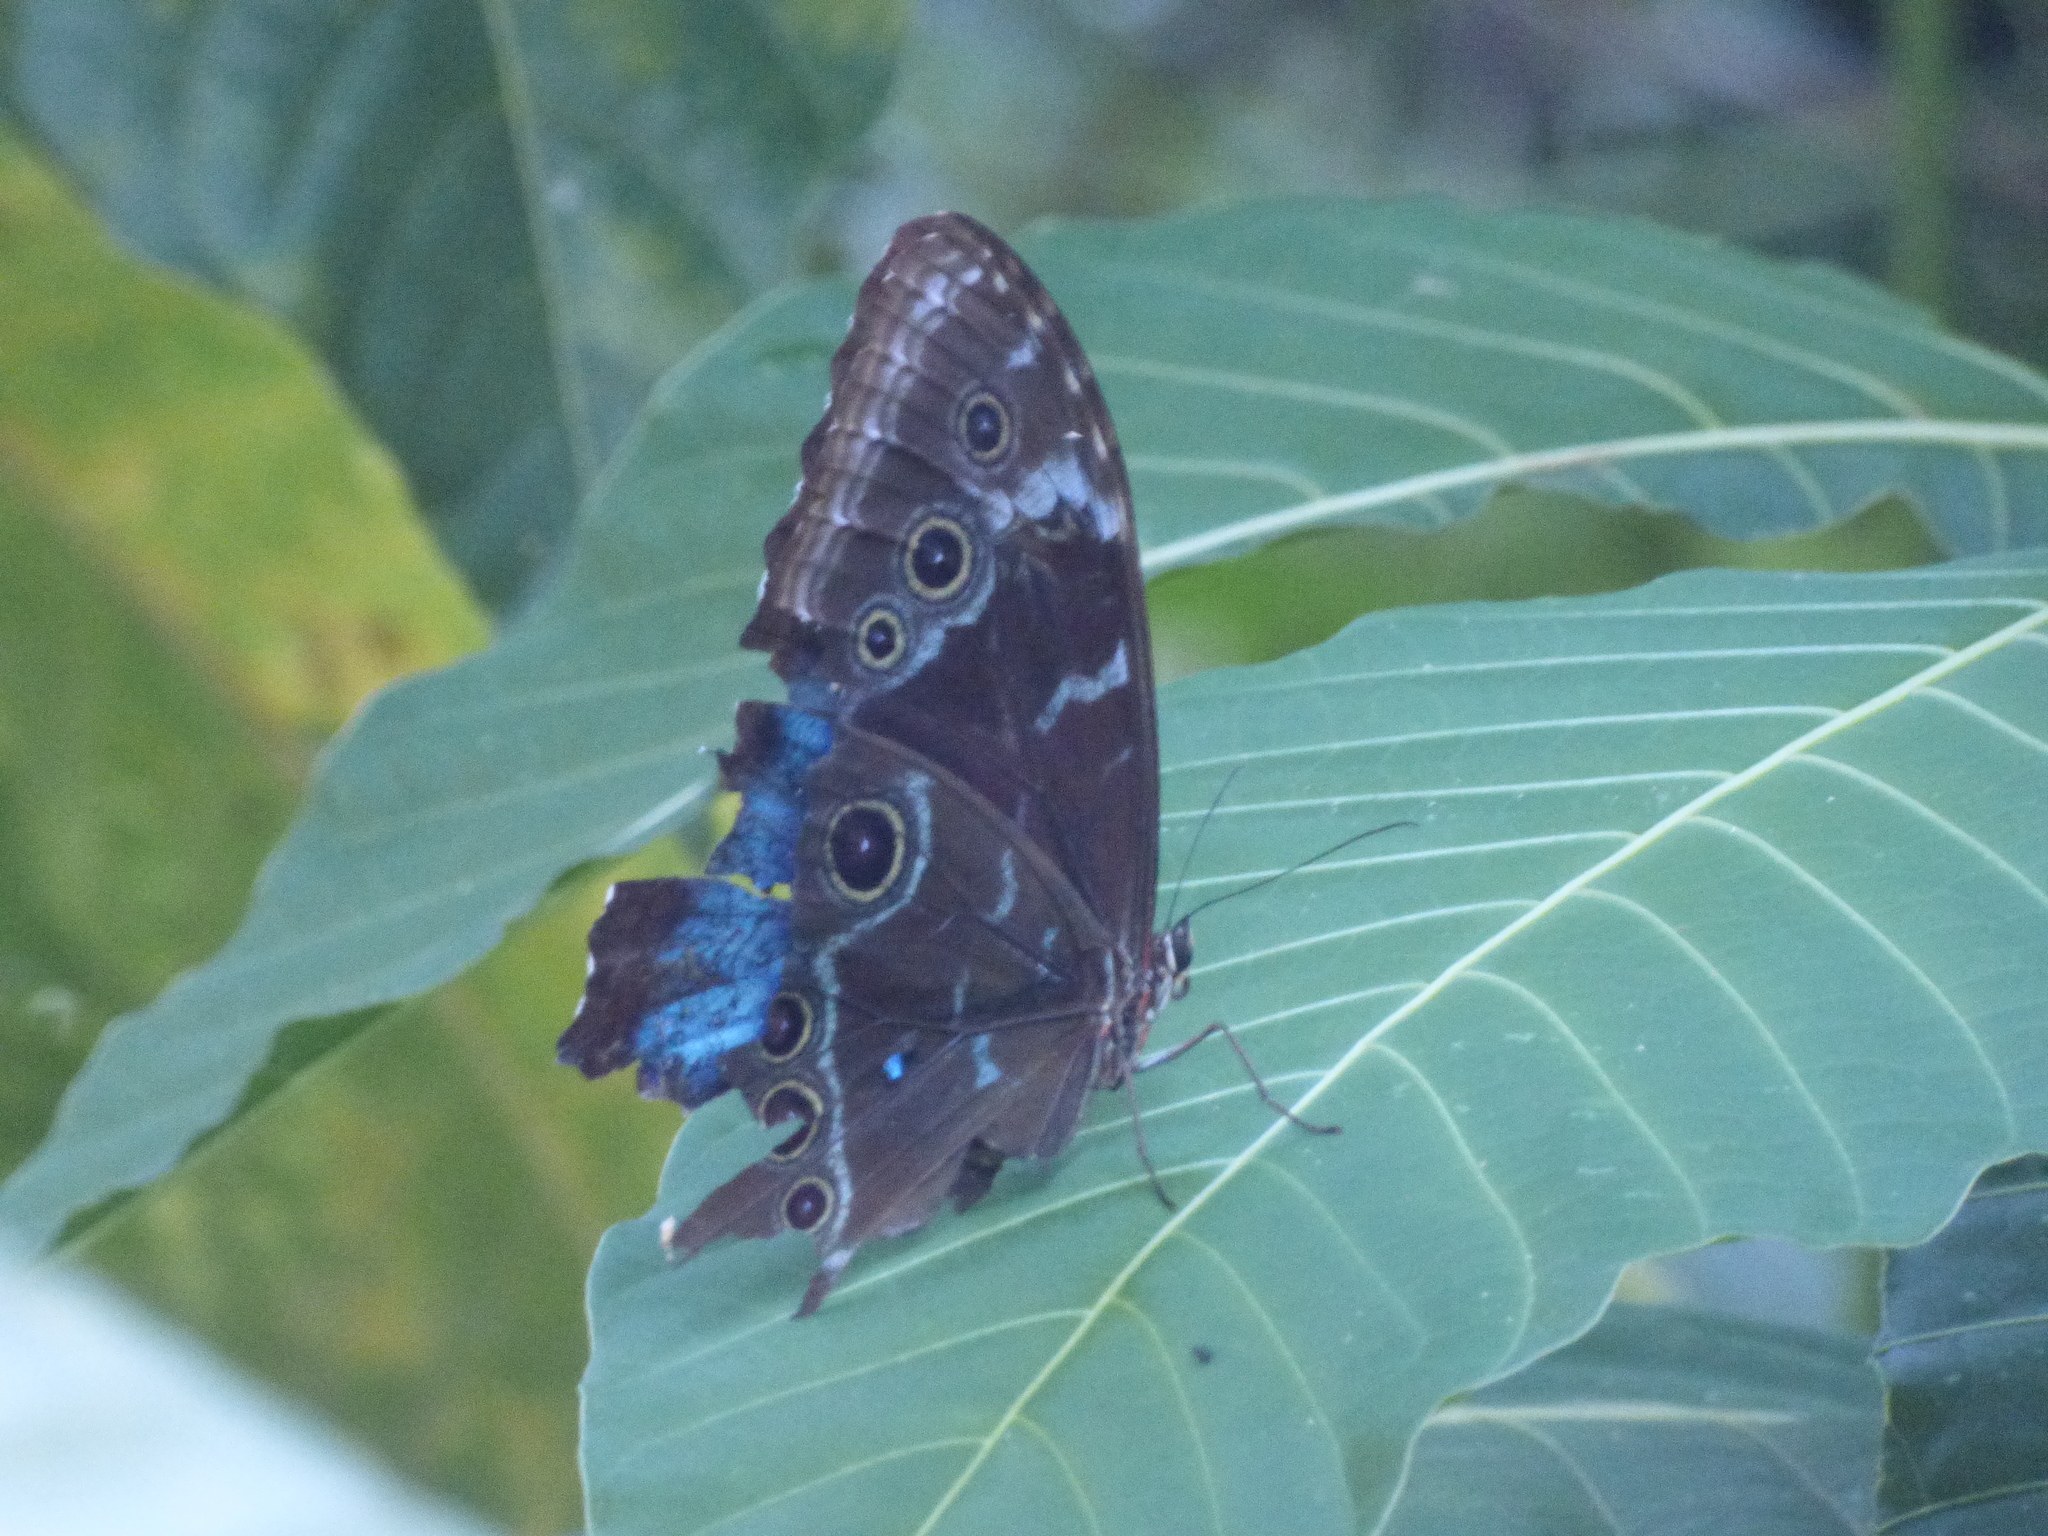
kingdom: Animalia
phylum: Arthropoda
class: Insecta
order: Lepidoptera
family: Nymphalidae
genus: Morpho
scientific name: Morpho helenor
